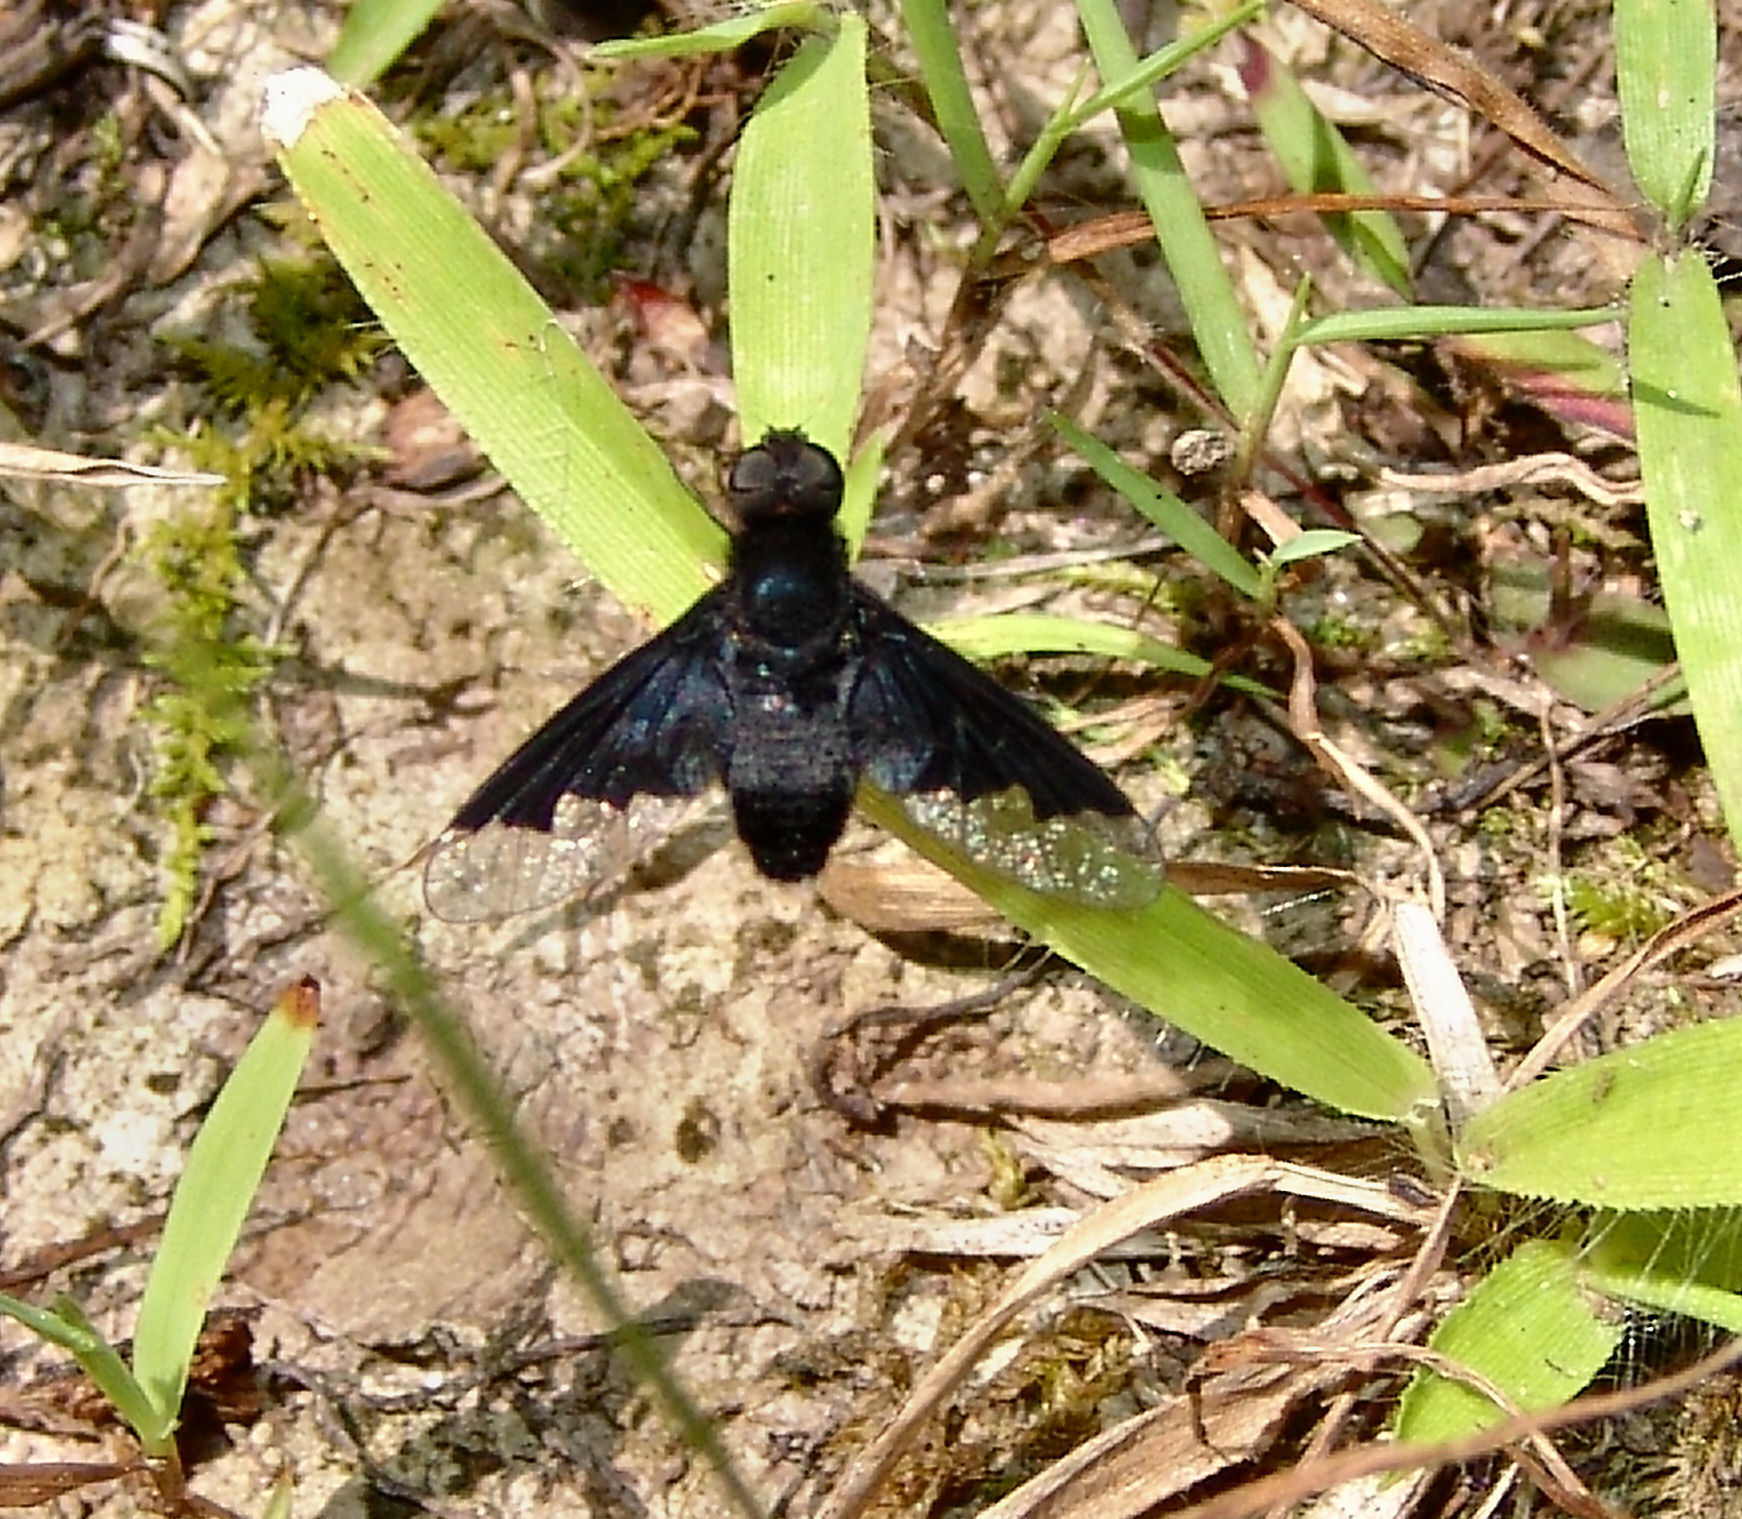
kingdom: Animalia
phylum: Arthropoda
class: Insecta
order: Diptera
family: Bombyliidae
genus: Anthrax
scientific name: Anthrax analis
